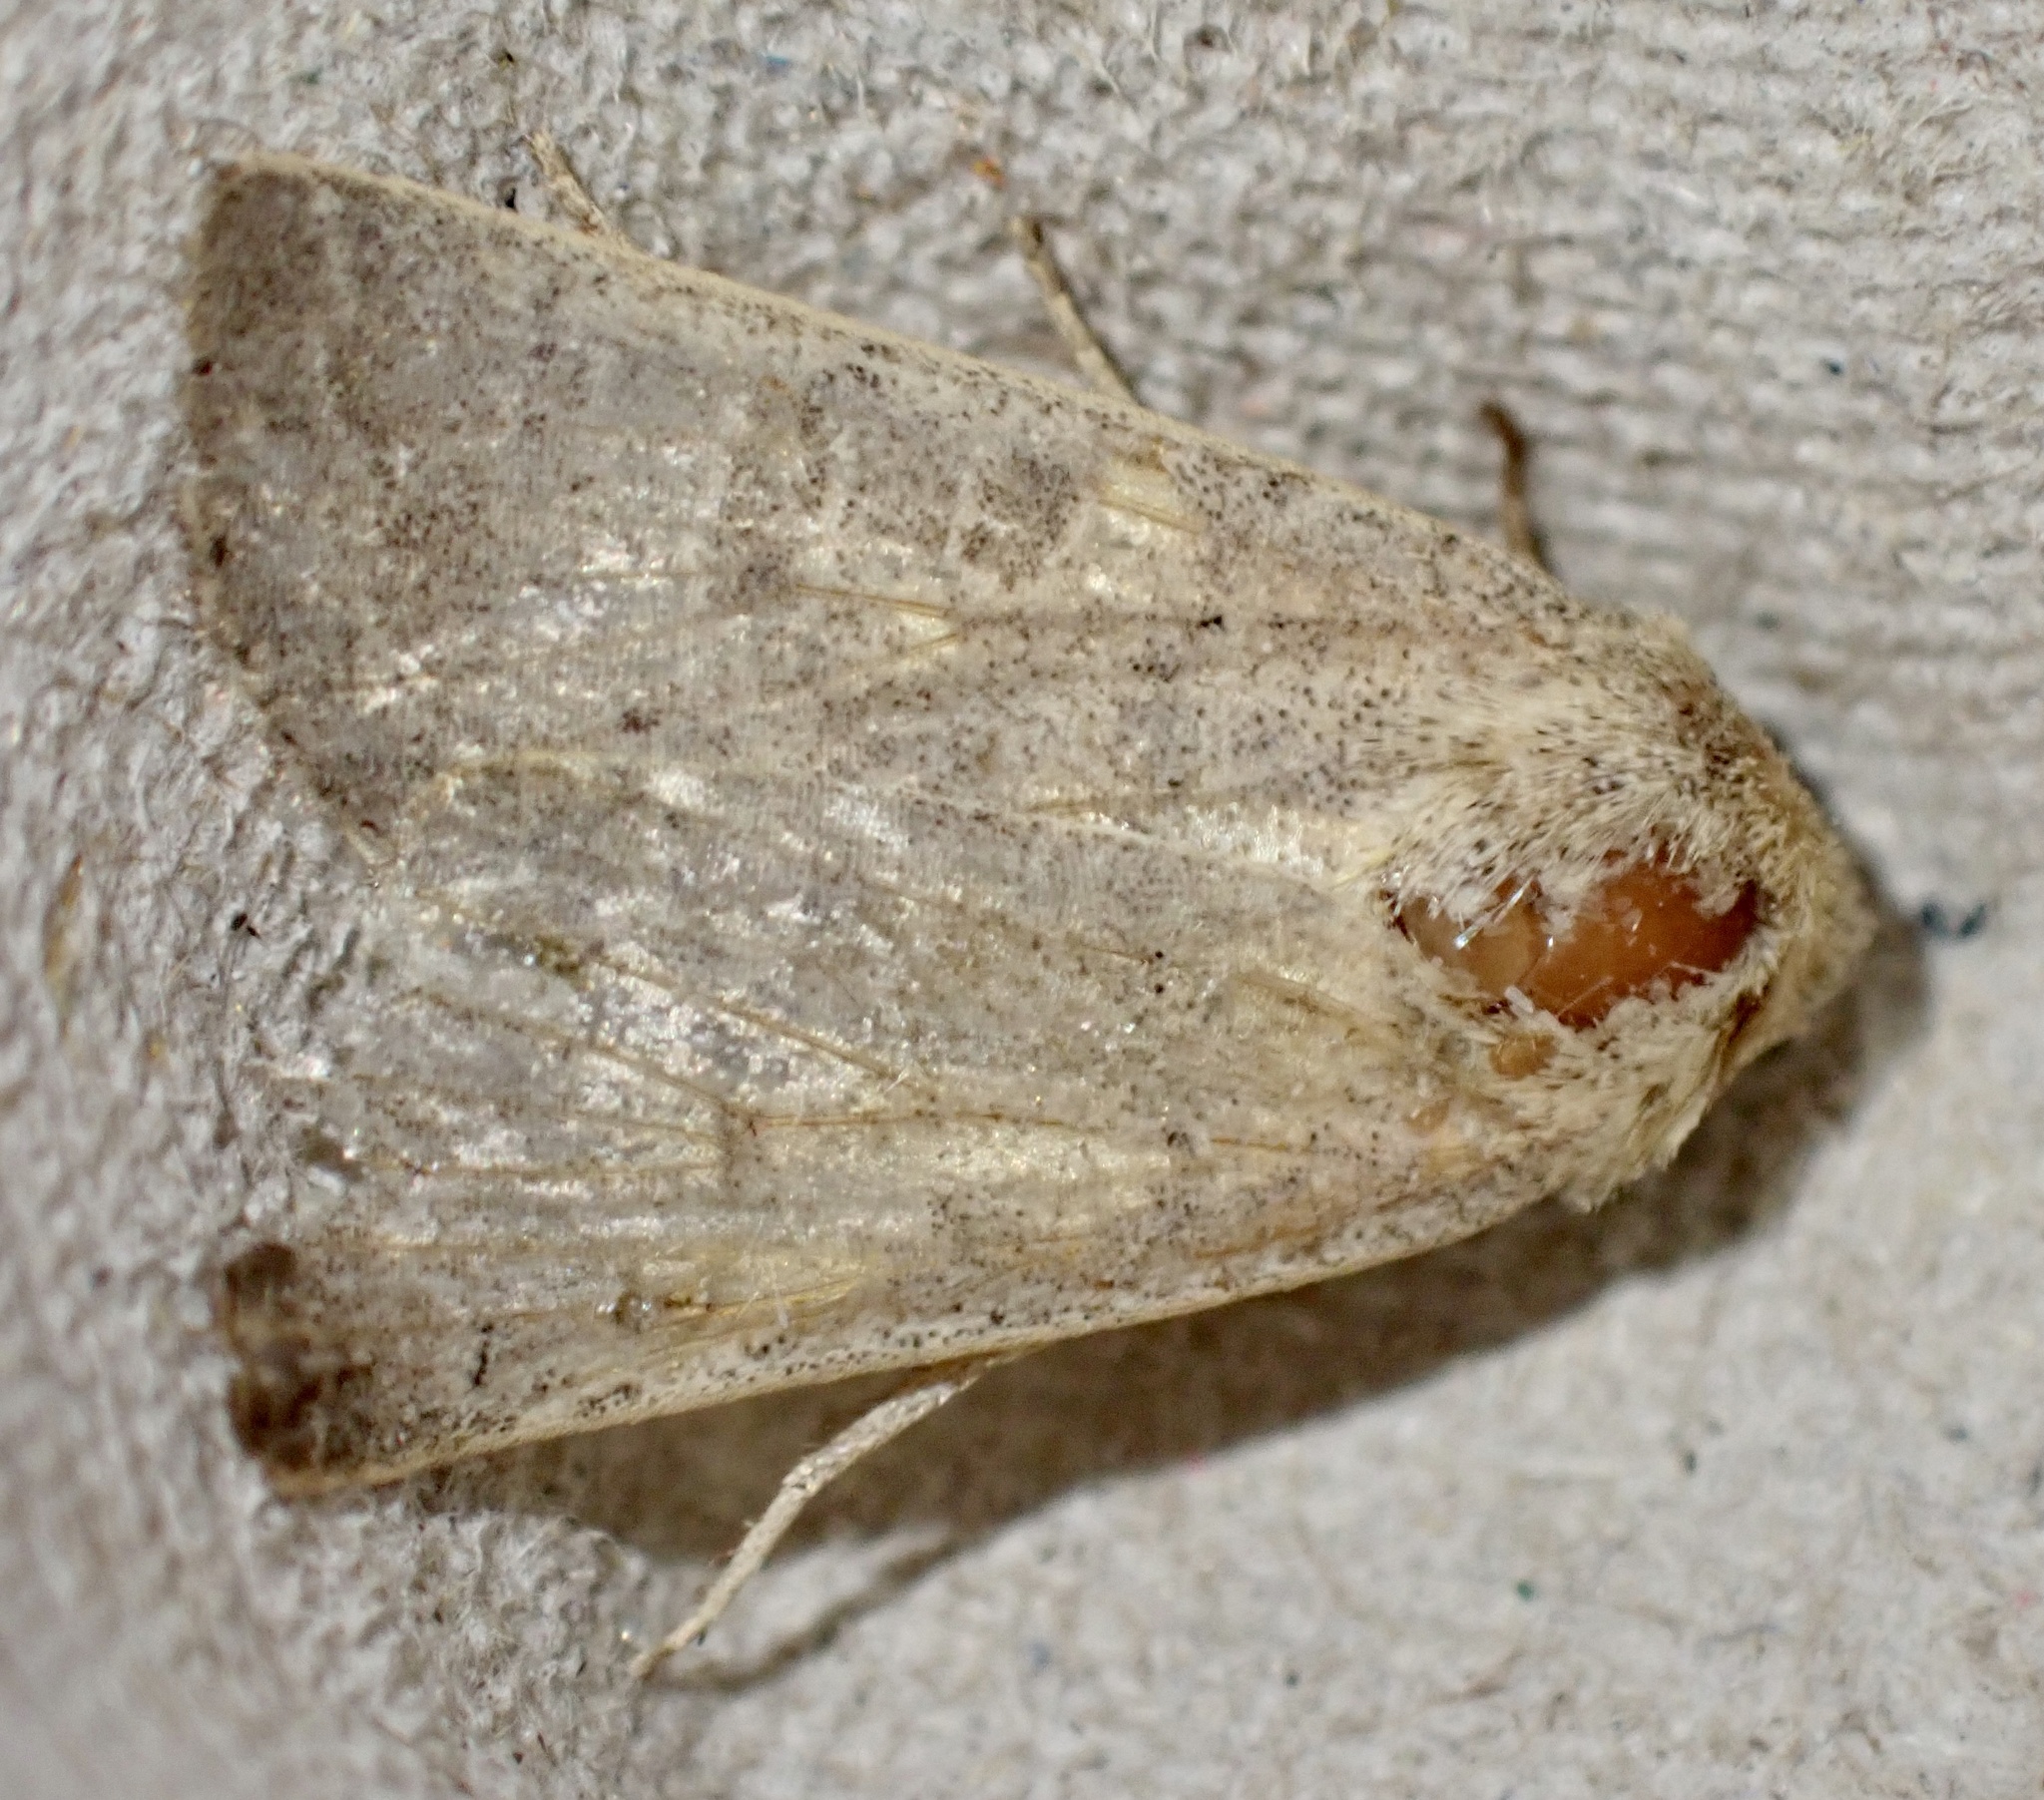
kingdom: Animalia
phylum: Arthropoda
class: Insecta
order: Lepidoptera
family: Noctuidae
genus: Hoplodrina
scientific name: Hoplodrina ambigua
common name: Vine's rustic
